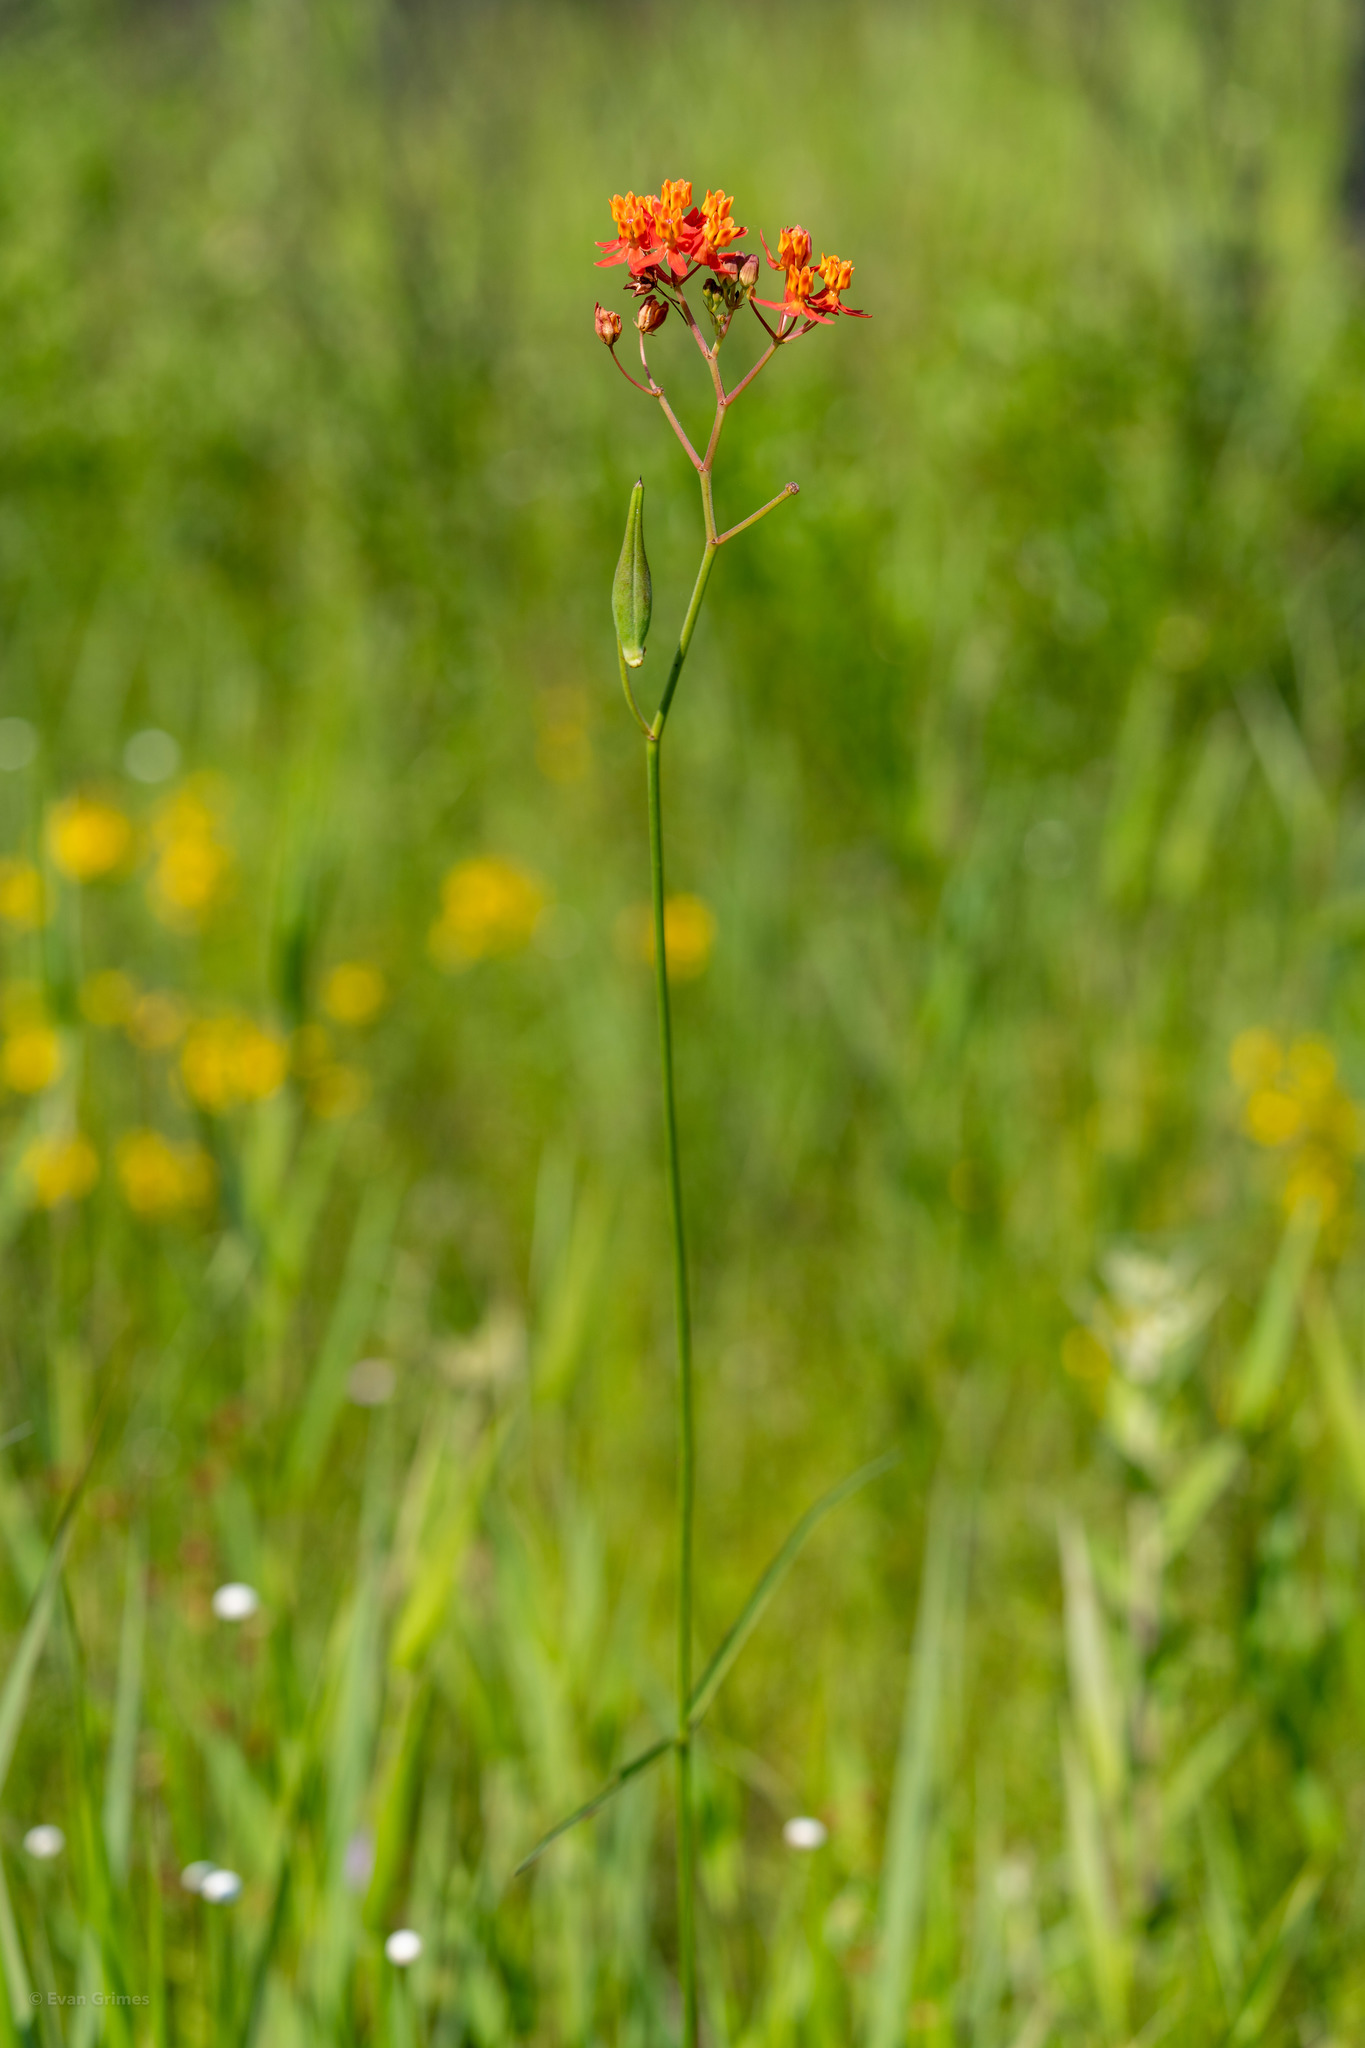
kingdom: Plantae
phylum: Tracheophyta
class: Magnoliopsida
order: Gentianales
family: Apocynaceae
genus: Asclepias
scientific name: Asclepias lanceolata
